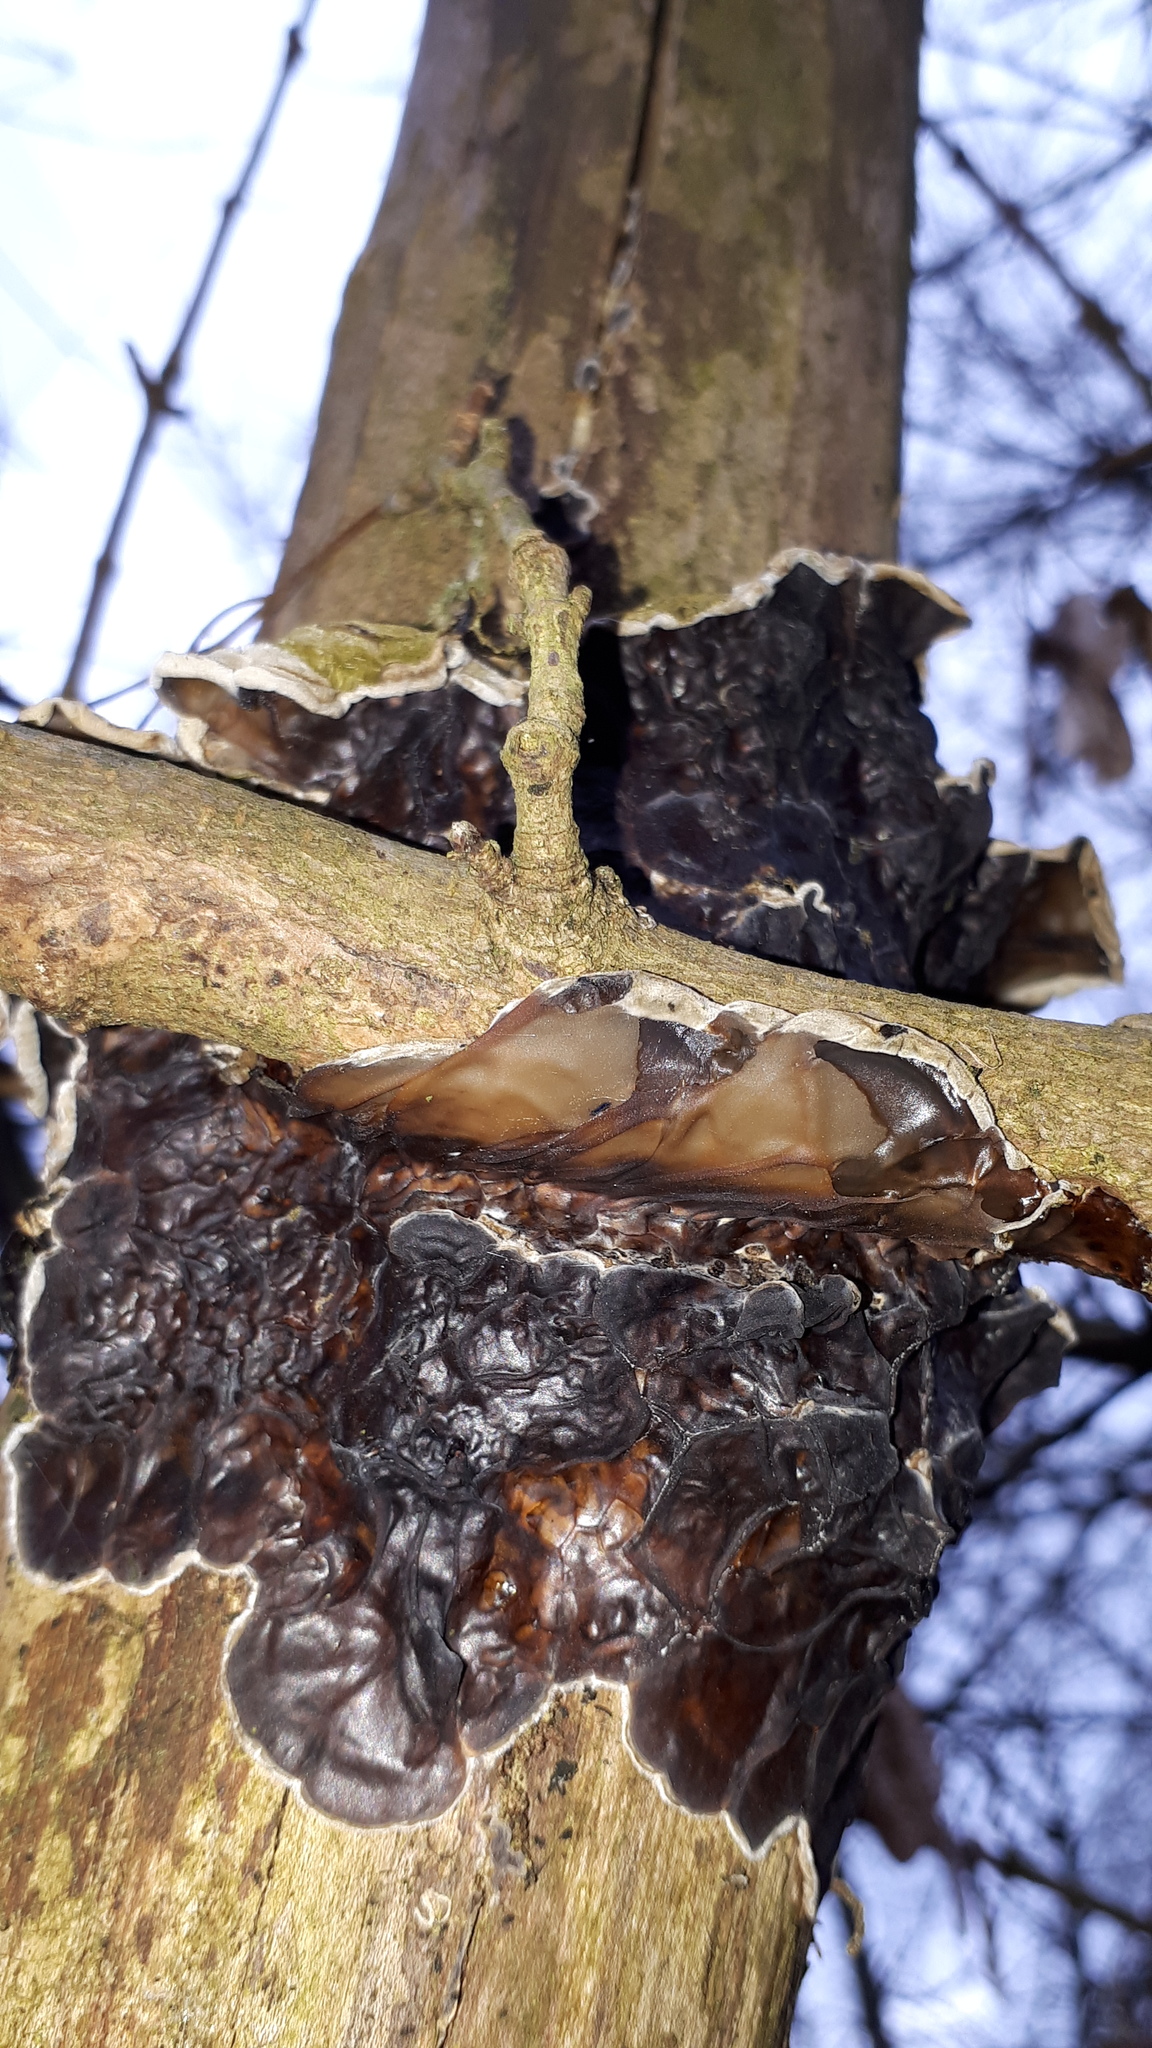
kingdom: Fungi
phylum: Basidiomycota
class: Agaricomycetes
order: Auriculariales
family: Auriculariaceae
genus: Auricularia
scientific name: Auricularia mesenterica
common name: Tripe fungus
